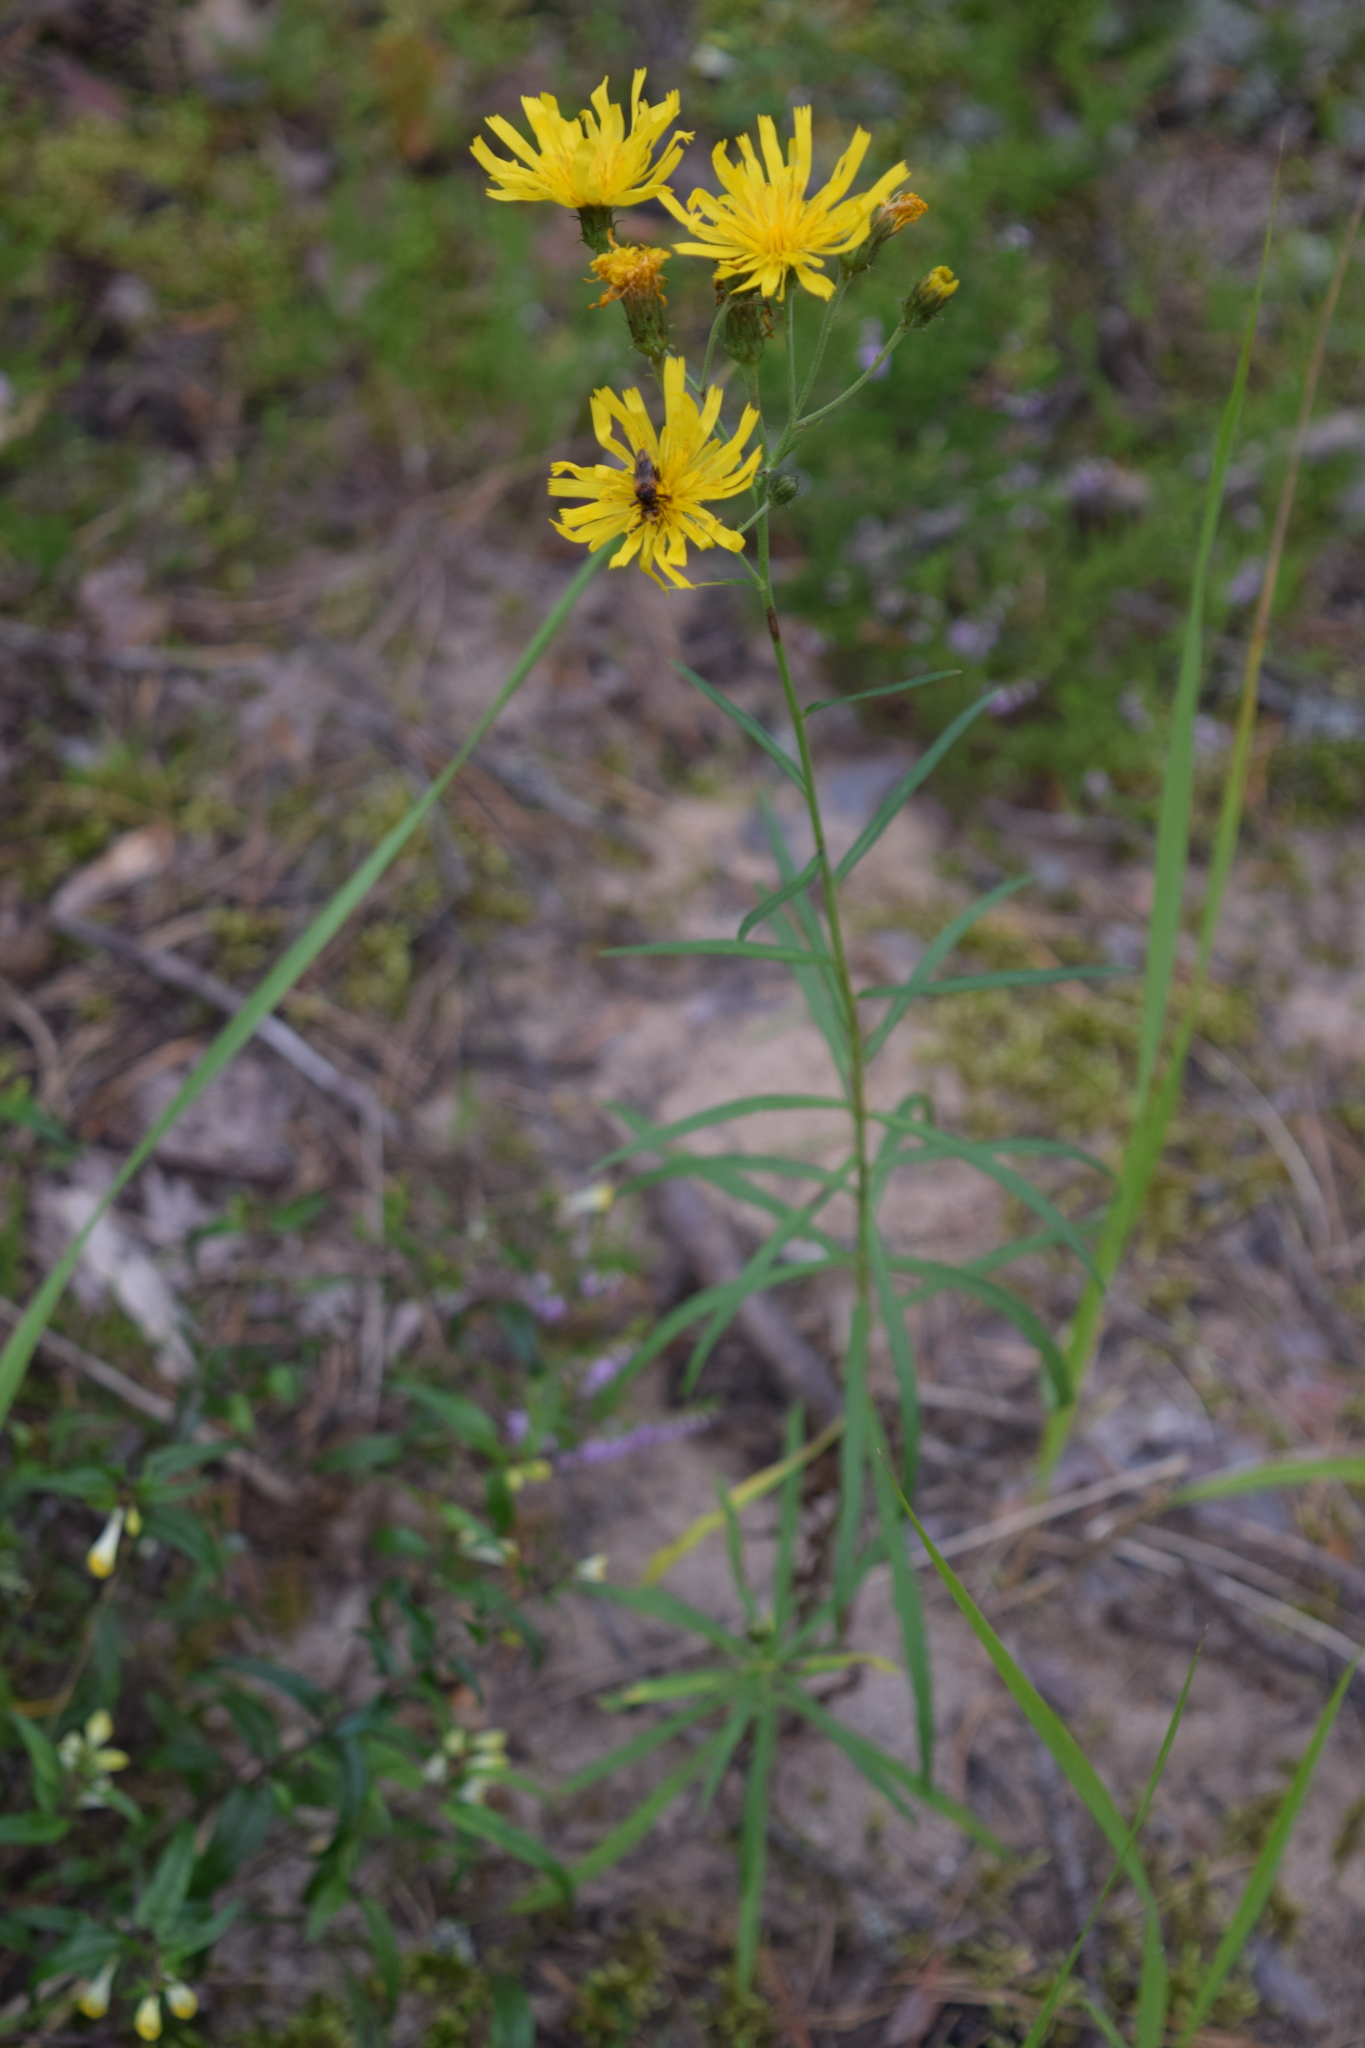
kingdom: Plantae
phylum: Tracheophyta
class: Magnoliopsida
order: Asterales
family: Asteraceae
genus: Hieracium
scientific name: Hieracium umbellatum
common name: Northern hawkweed
